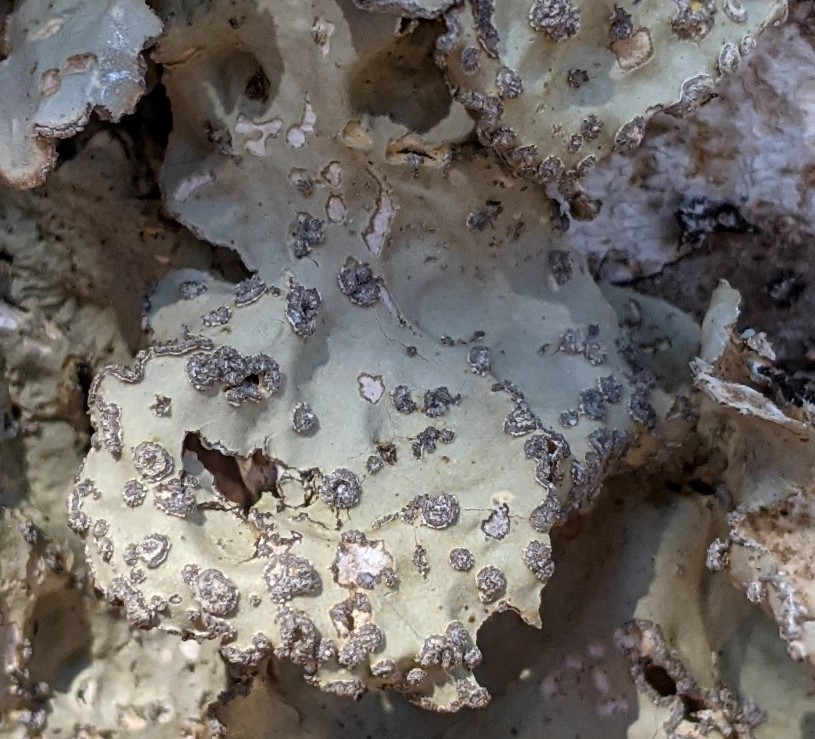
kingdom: Fungi
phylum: Ascomycota
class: Lecanoromycetes
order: Peltigerales
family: Lobariaceae
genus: Lobarina
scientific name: Lobarina scrobiculata
